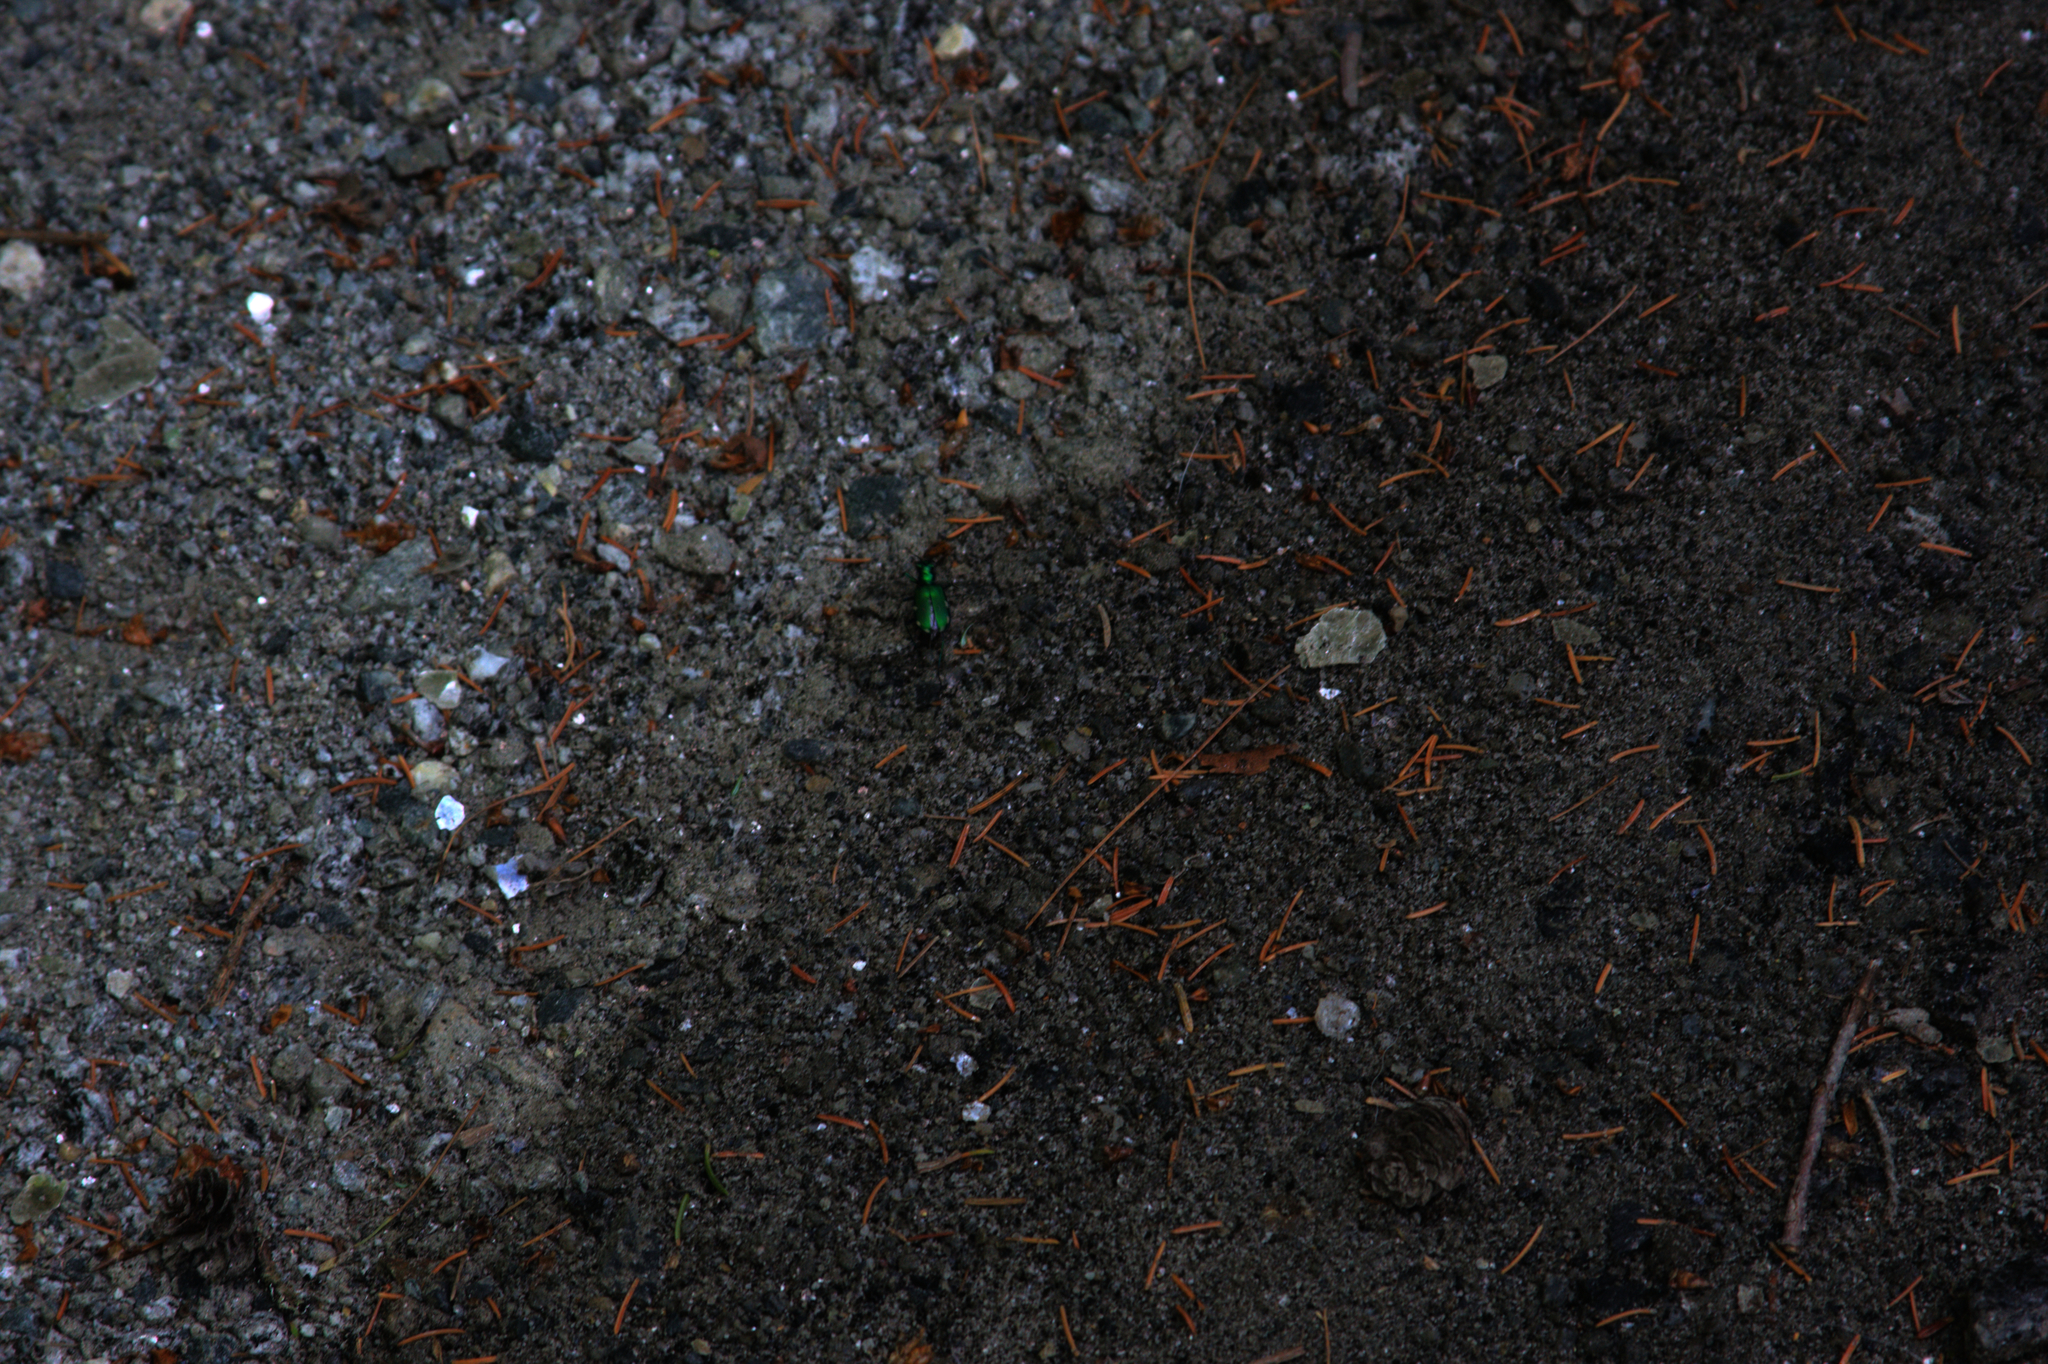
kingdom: Animalia
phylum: Arthropoda
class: Insecta
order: Coleoptera
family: Carabidae
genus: Cicindela
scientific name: Cicindela sexguttata
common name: Six-spotted tiger beetle
